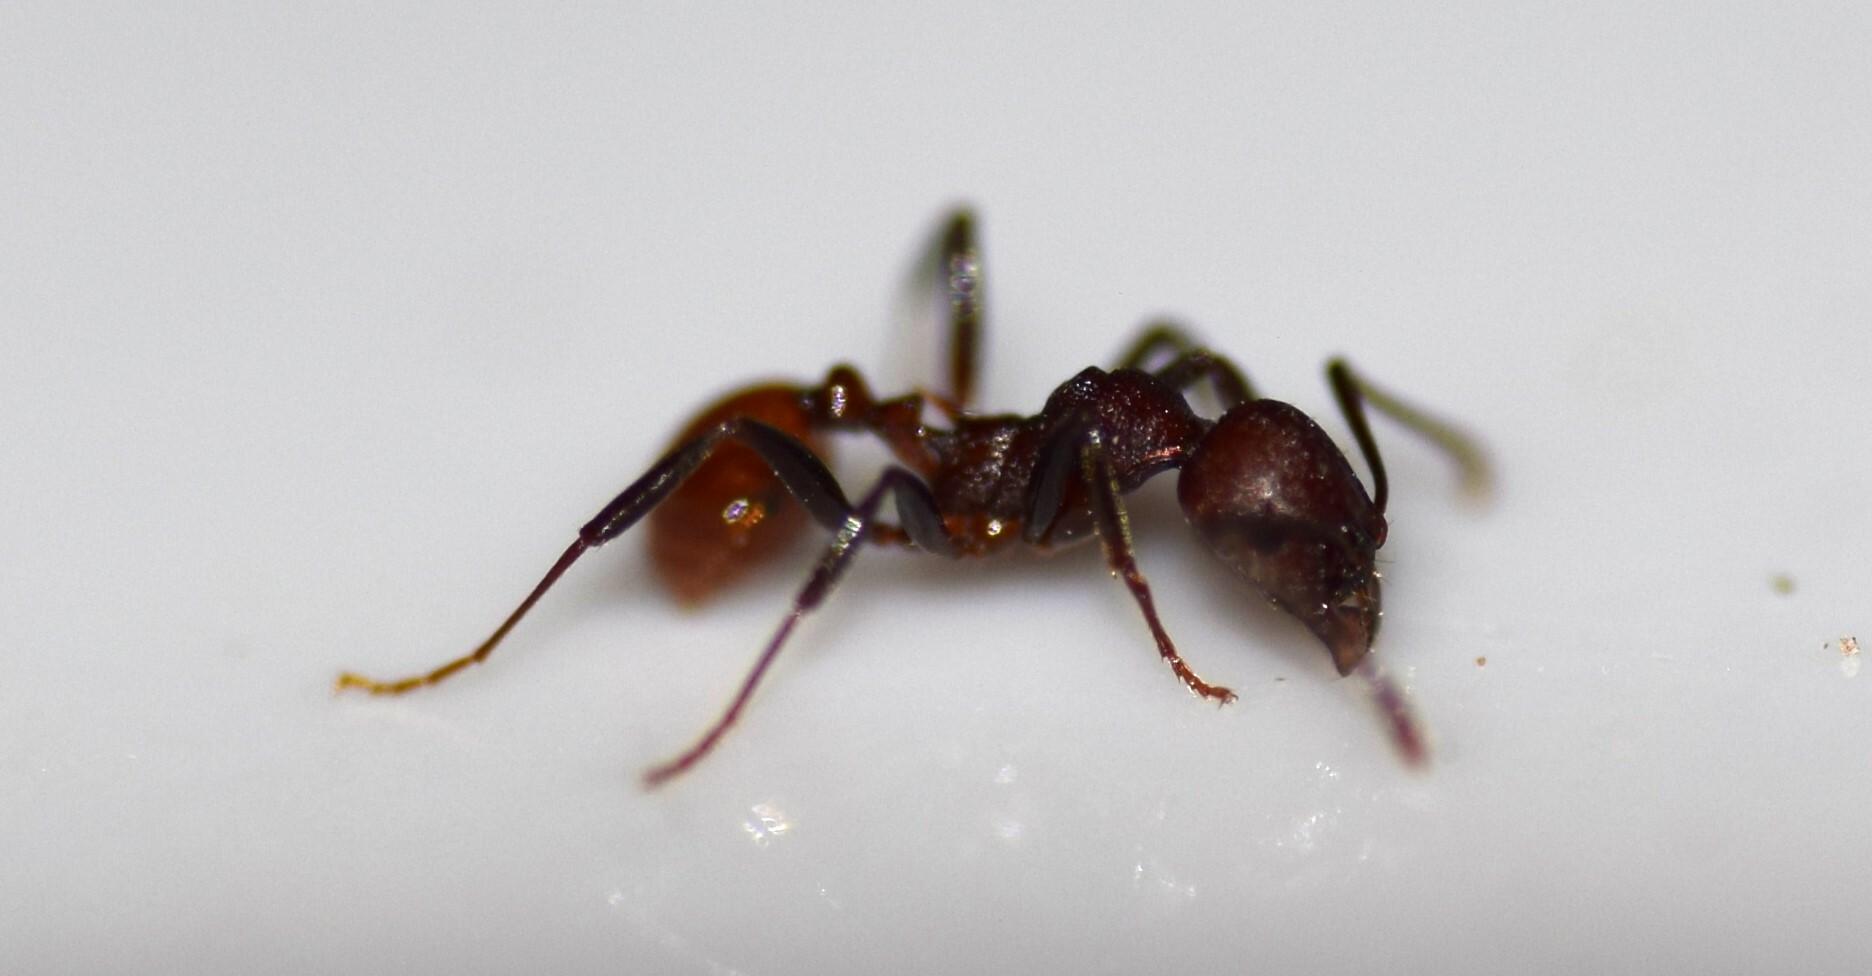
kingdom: Animalia
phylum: Arthropoda
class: Insecta
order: Hymenoptera
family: Formicidae
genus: Aphaenogaster
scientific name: Aphaenogaster tennesseensis
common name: Tennessee thread-waisted ant
